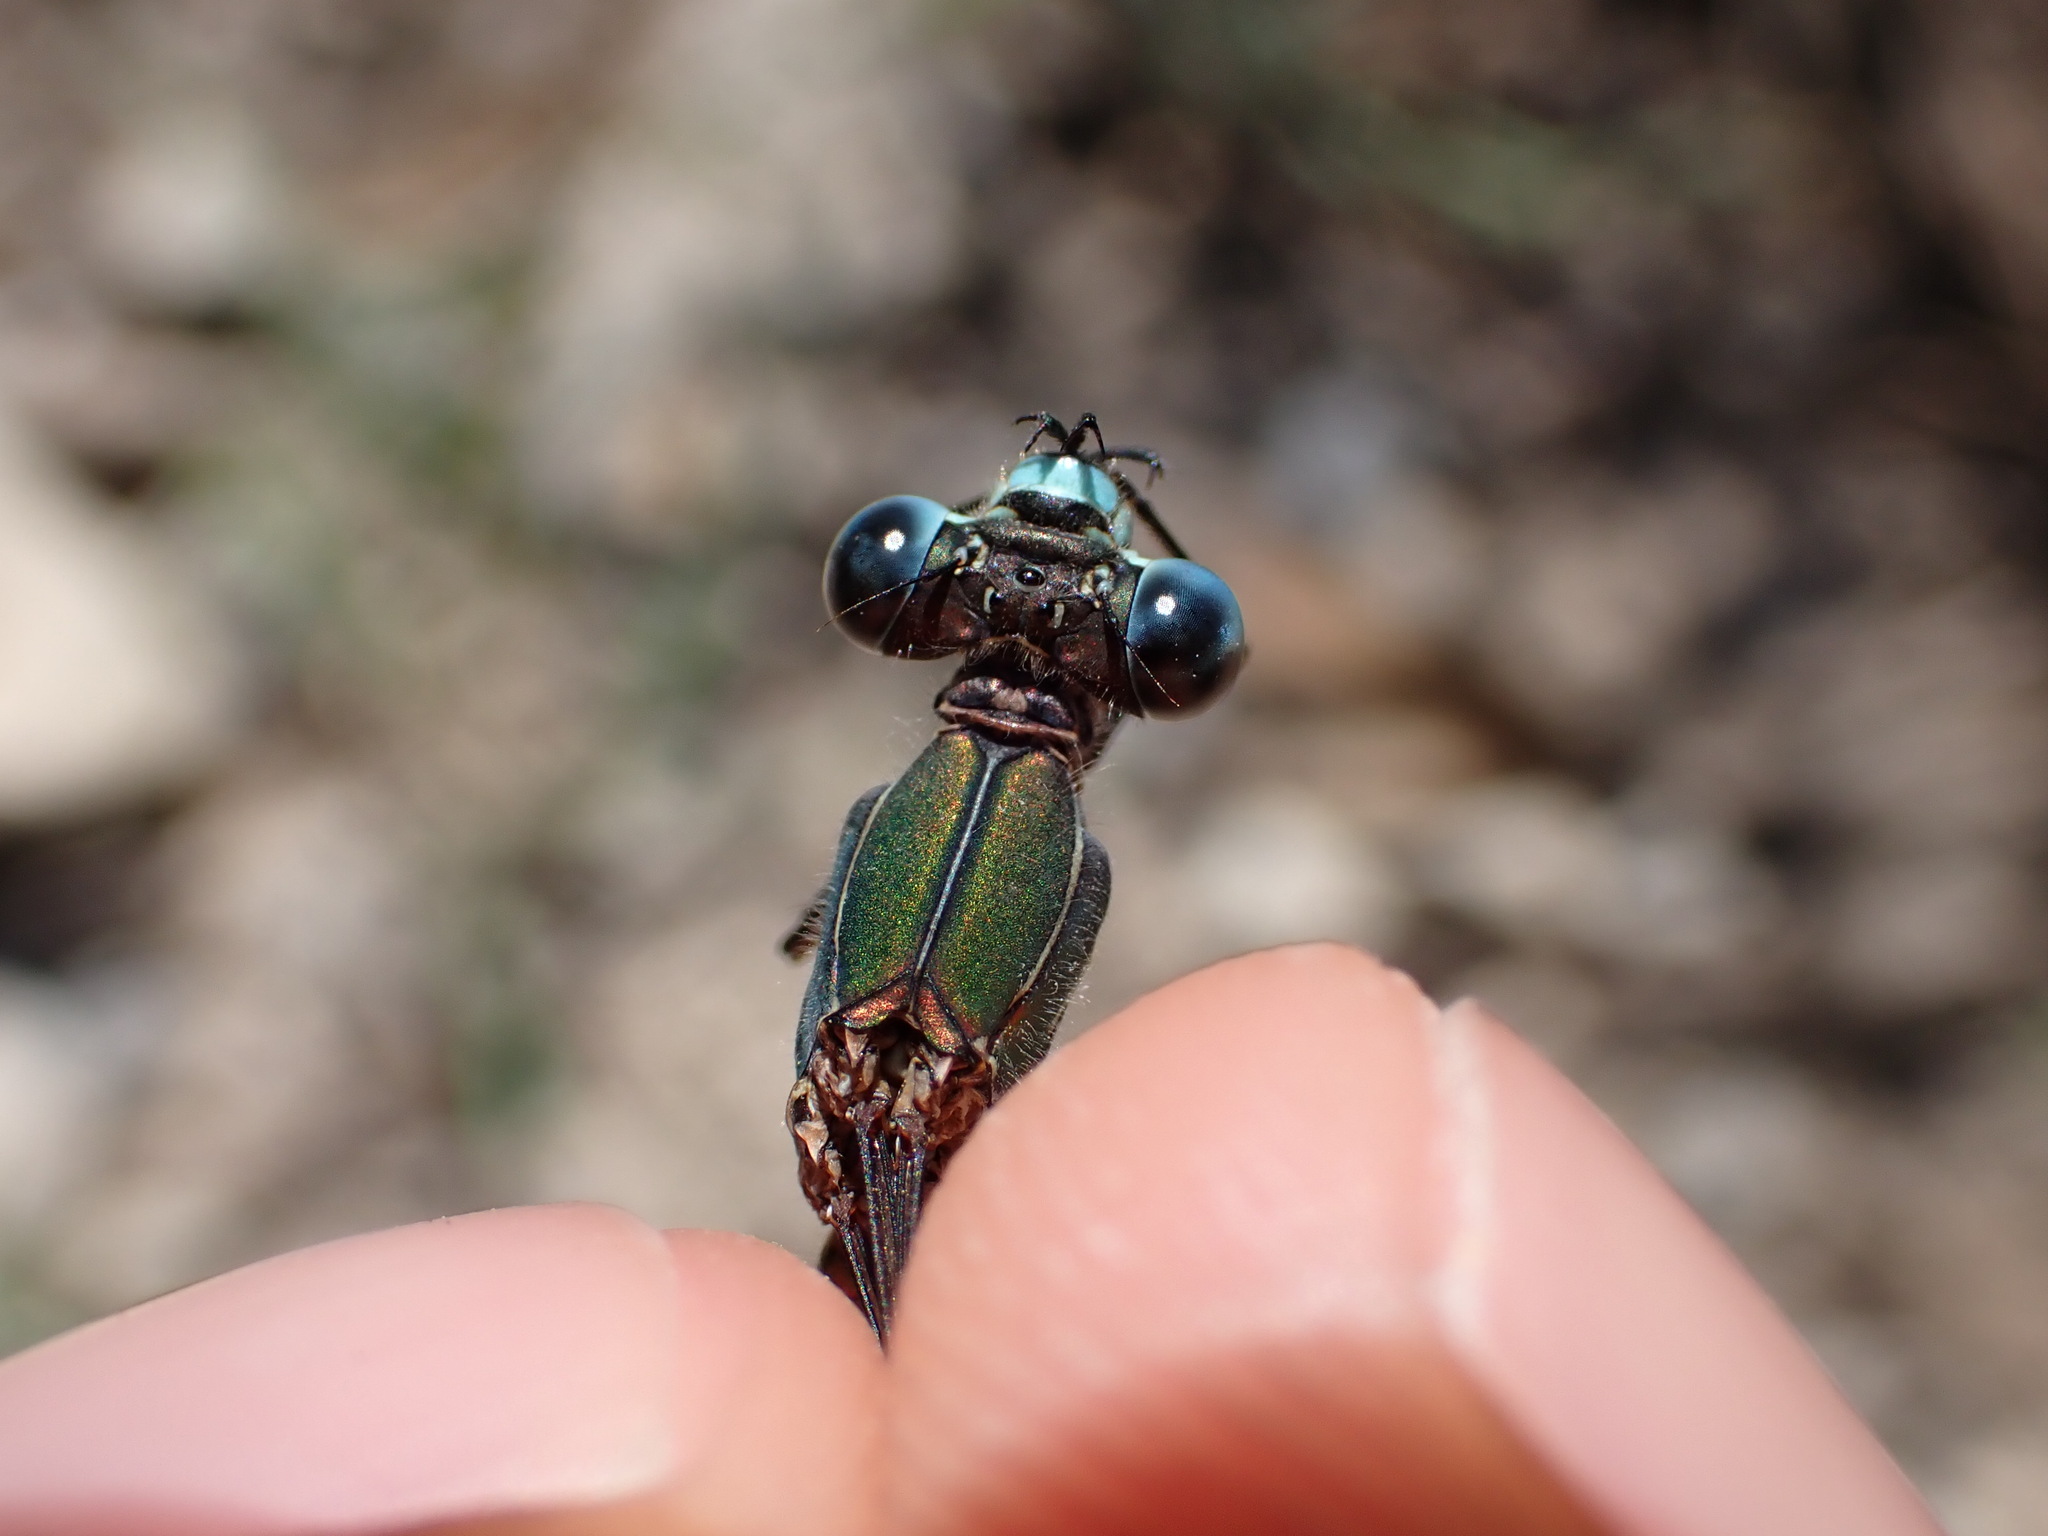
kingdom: Animalia
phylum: Arthropoda
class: Insecta
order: Odonata
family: Lestidae
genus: Chalcolestes
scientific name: Chalcolestes viridis
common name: Green emerald damselfly
